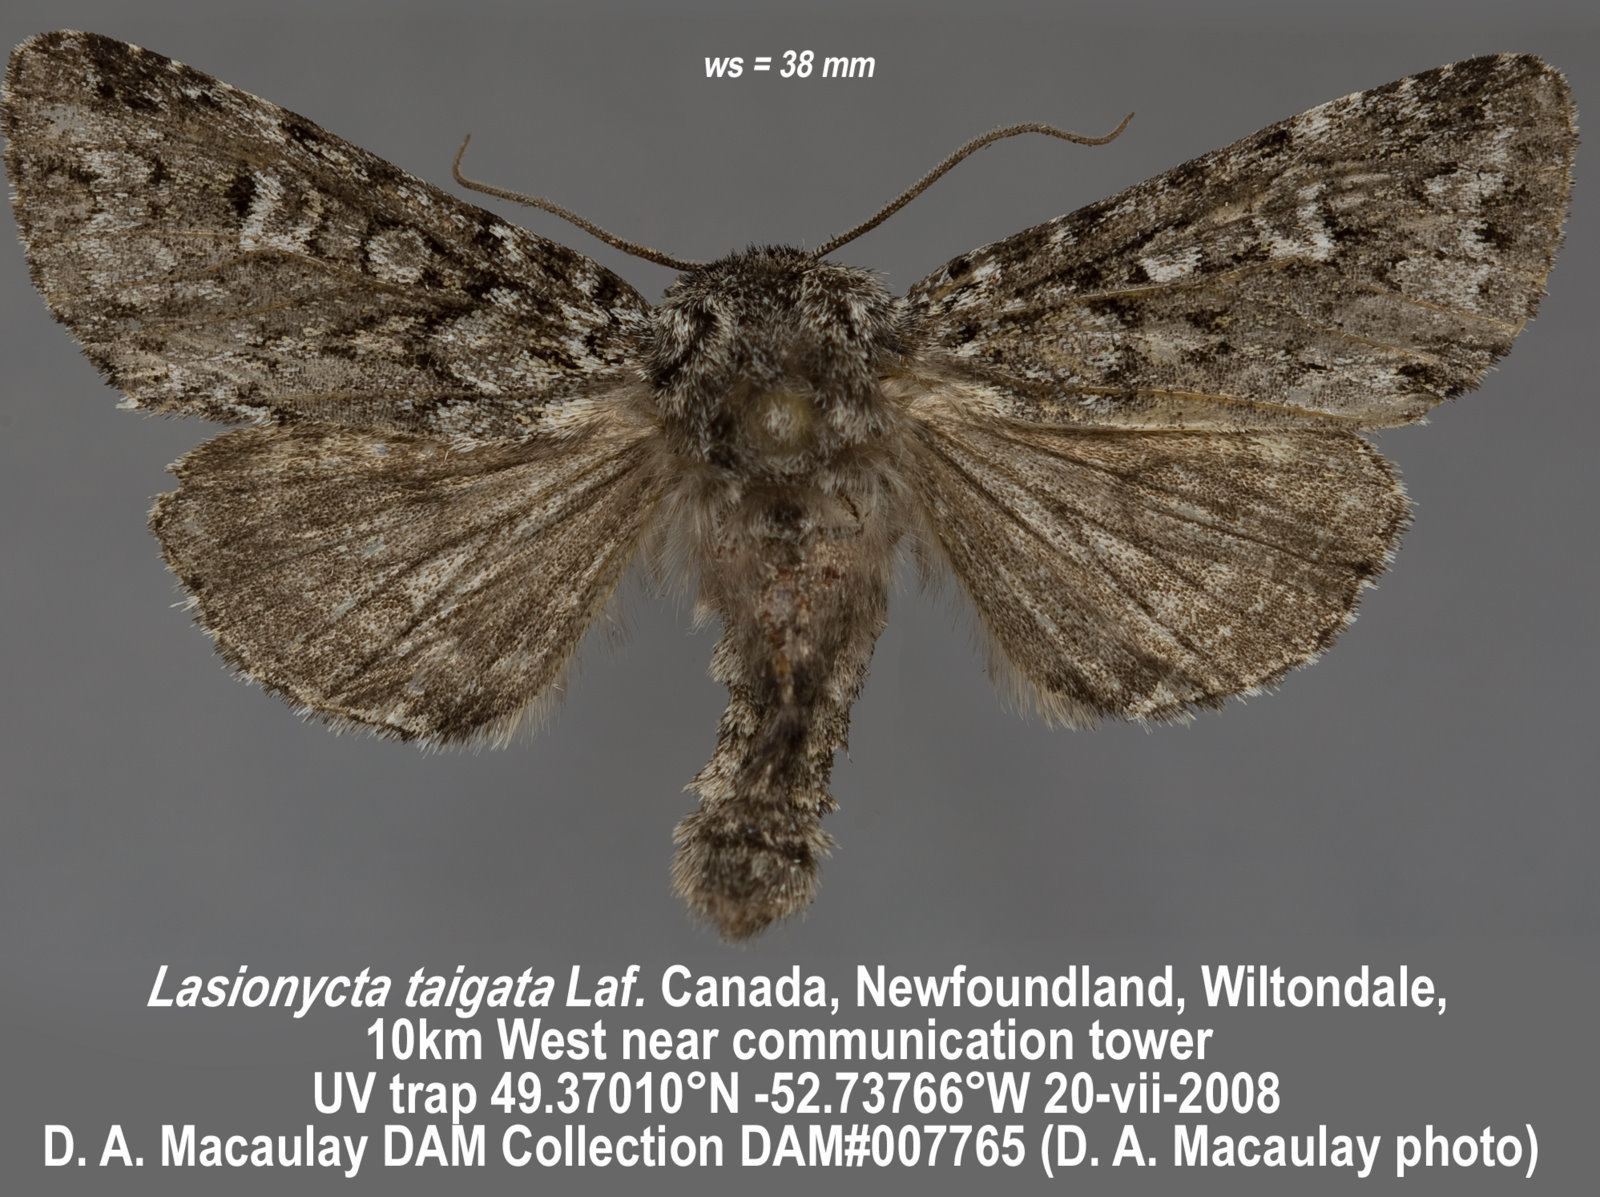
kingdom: Animalia
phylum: Arthropoda
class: Insecta
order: Lepidoptera
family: Noctuidae
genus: Lasionycta
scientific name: Lasionycta taigata
